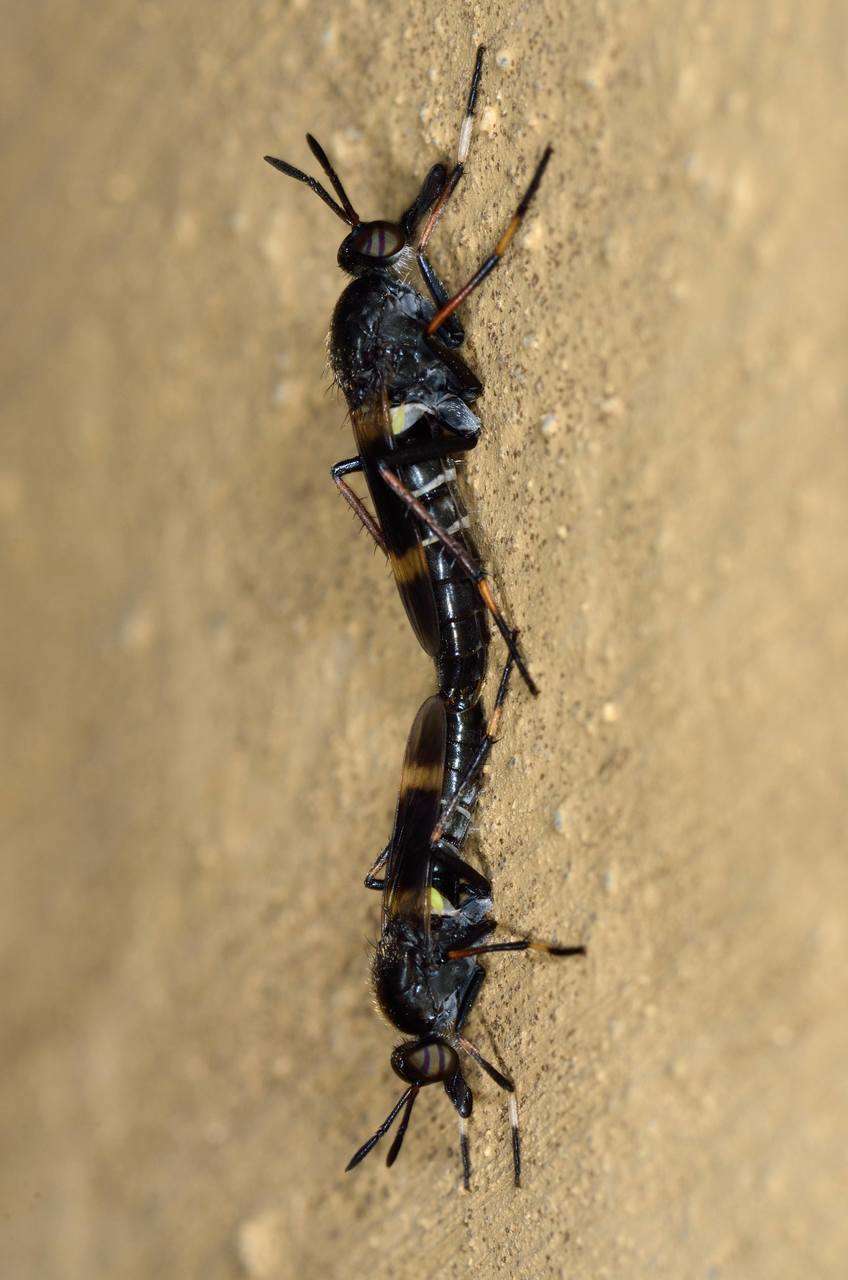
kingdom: Animalia
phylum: Arthropoda
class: Insecta
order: Diptera
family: Therevidae
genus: Agapophytus
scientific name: Agapophytus albobasalis
